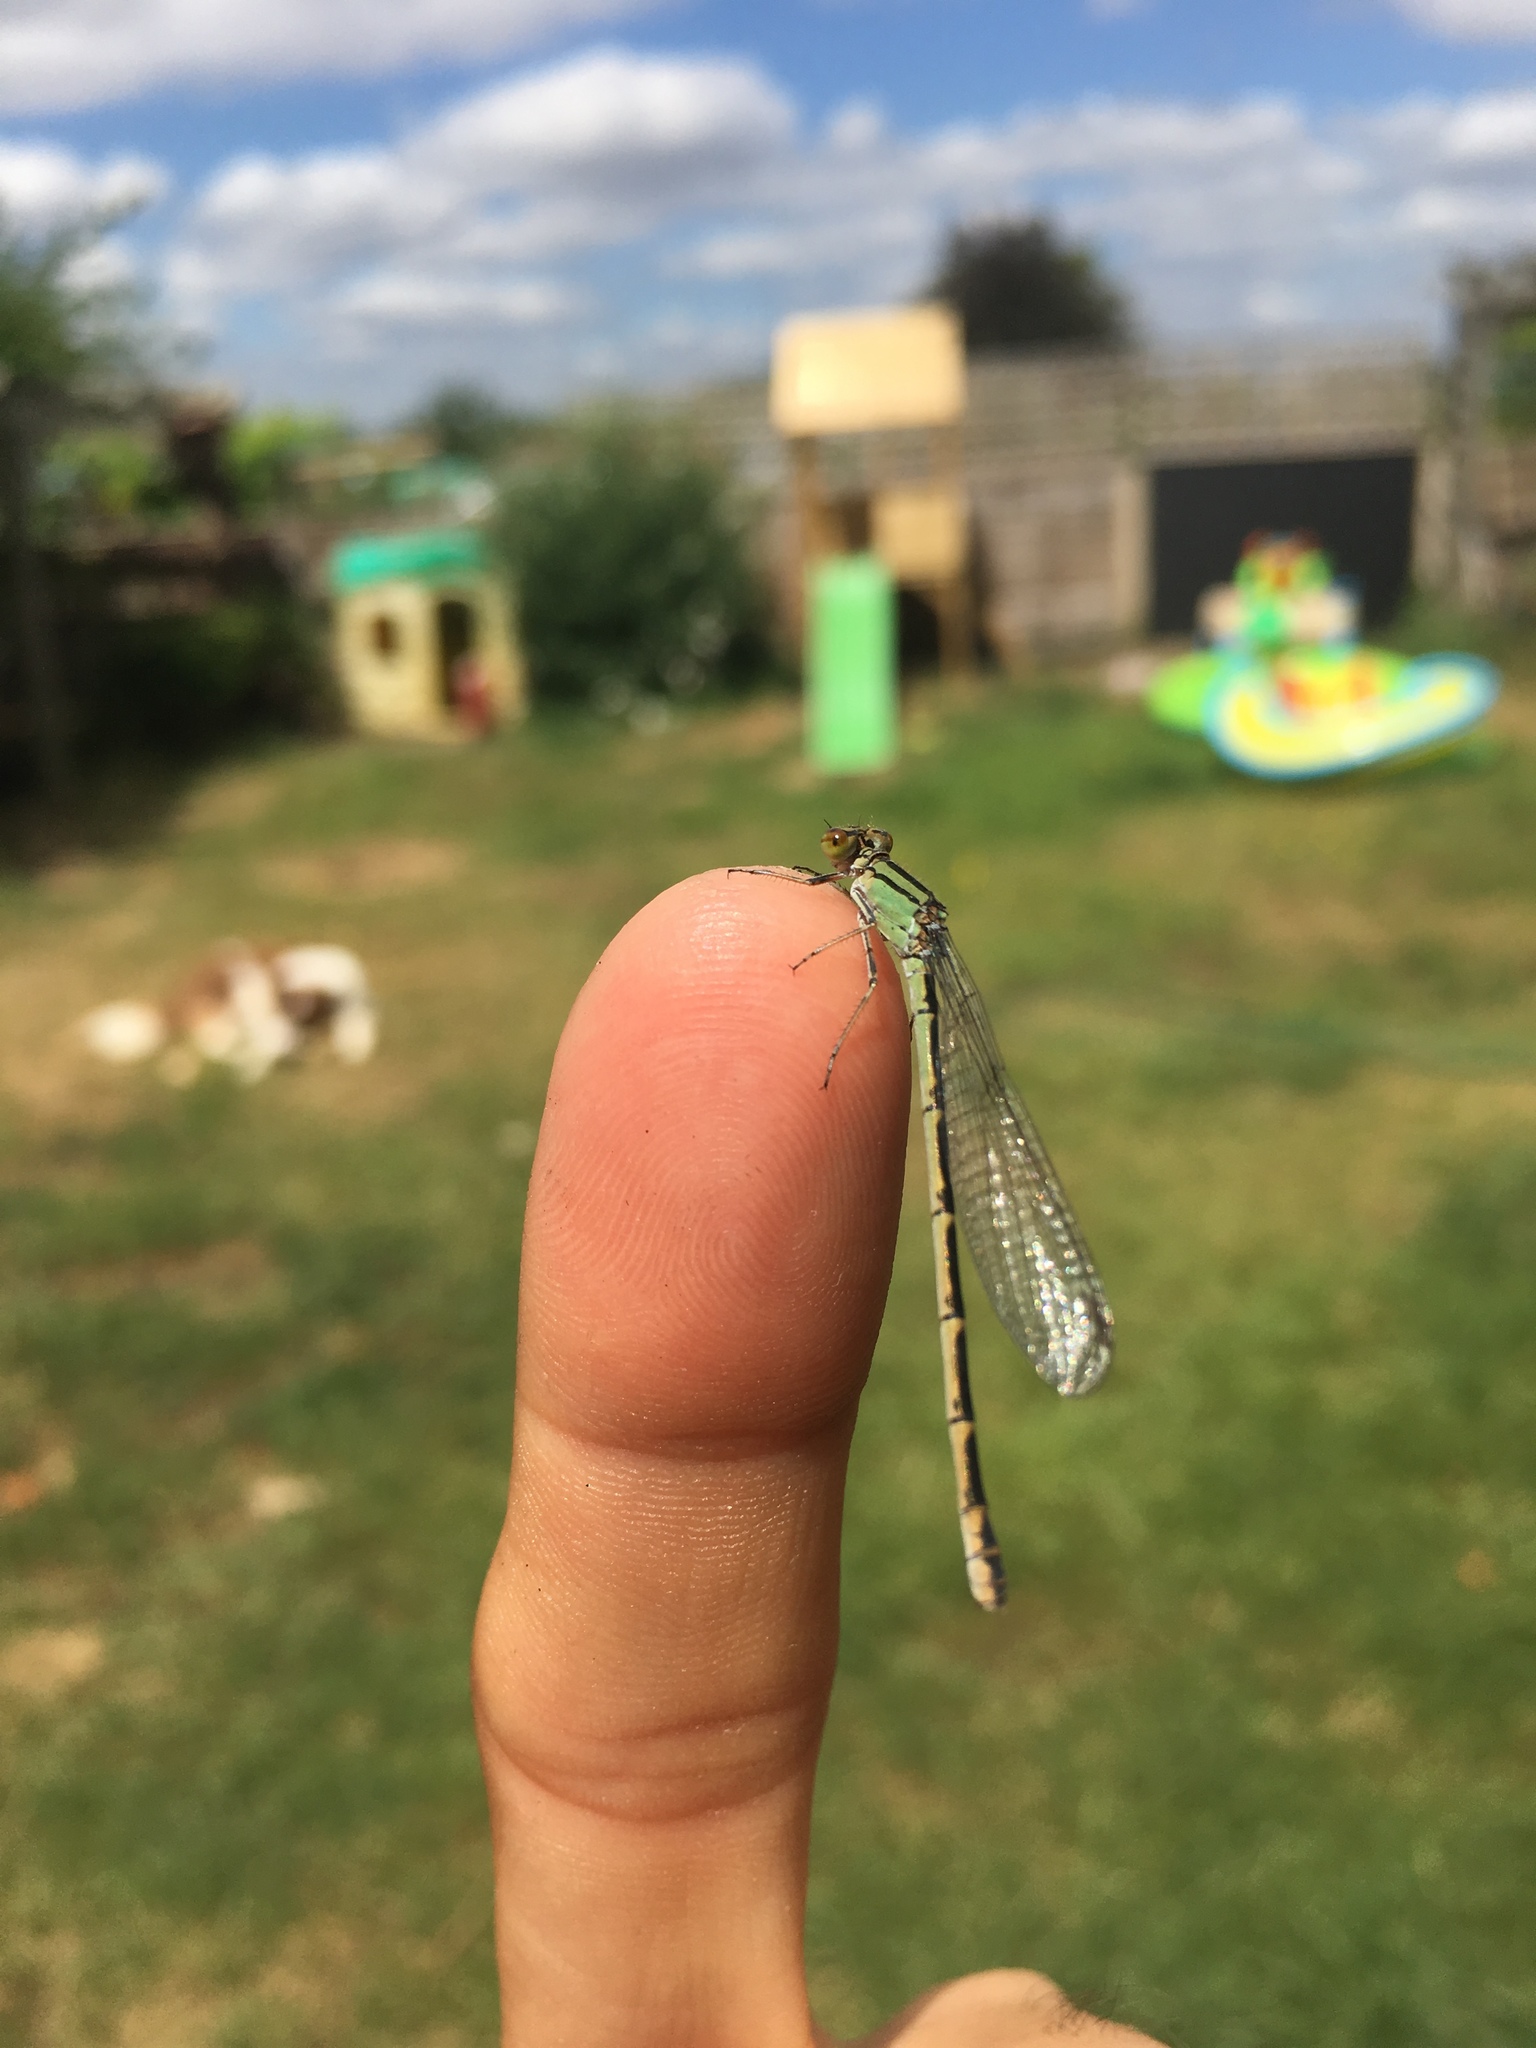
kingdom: Animalia
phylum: Arthropoda
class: Insecta
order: Odonata
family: Coenagrionidae
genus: Enallagma
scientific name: Enallagma cyathigerum
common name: Common blue damselfly
